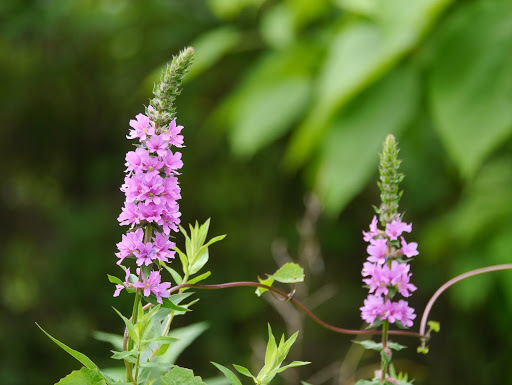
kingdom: Plantae
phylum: Tracheophyta
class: Magnoliopsida
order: Myrtales
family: Lythraceae
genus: Lythrum
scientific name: Lythrum salicaria
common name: Purple loosestrife
